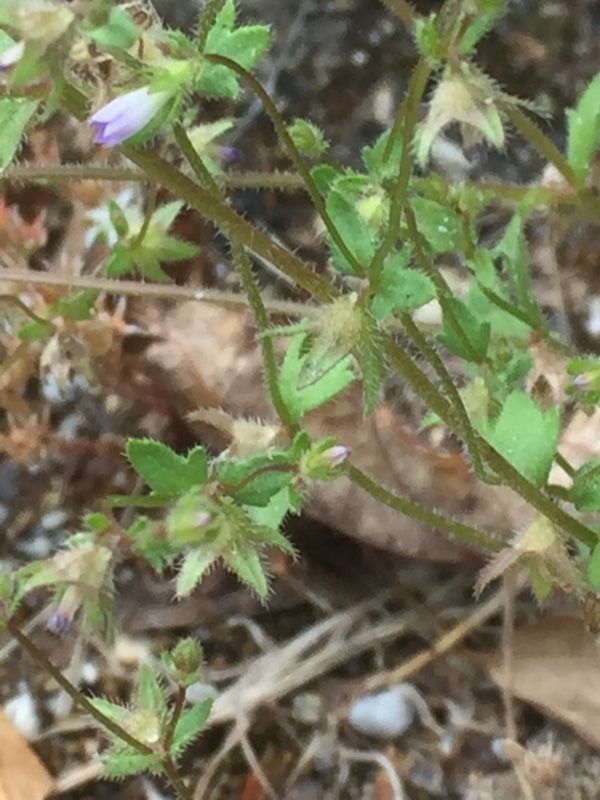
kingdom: Plantae
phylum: Tracheophyta
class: Magnoliopsida
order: Asterales
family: Campanulaceae
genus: Campanula
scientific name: Campanula erinus
